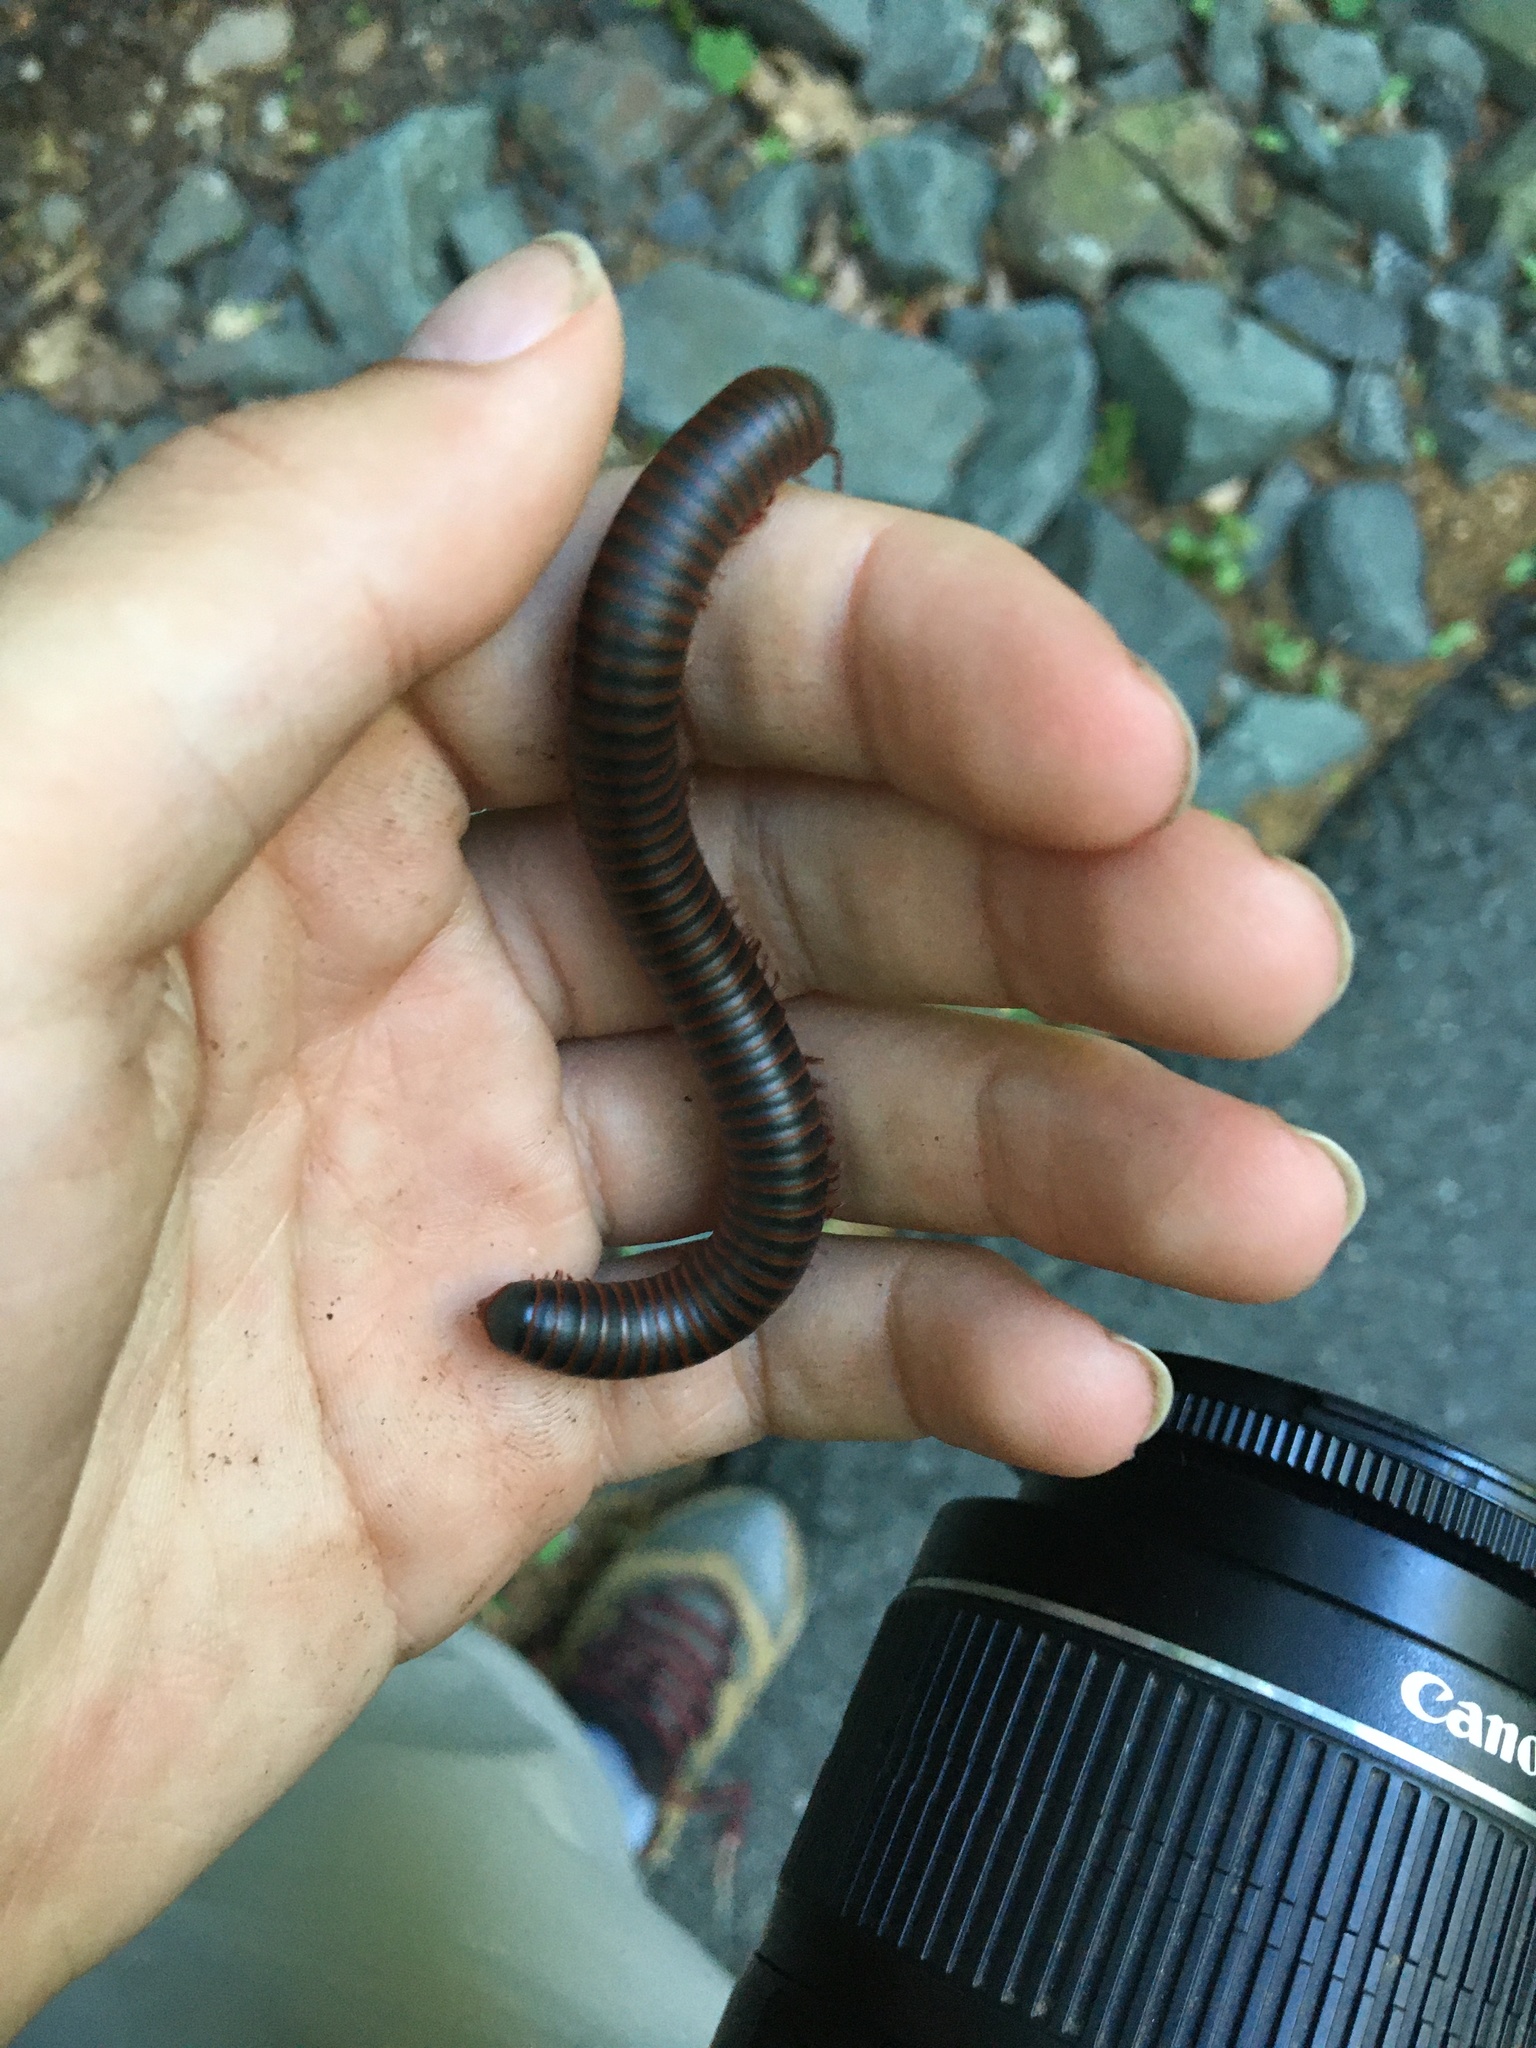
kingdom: Animalia
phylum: Arthropoda
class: Diplopoda
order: Spirobolida
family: Spirobolidae
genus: Narceus
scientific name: Narceus
